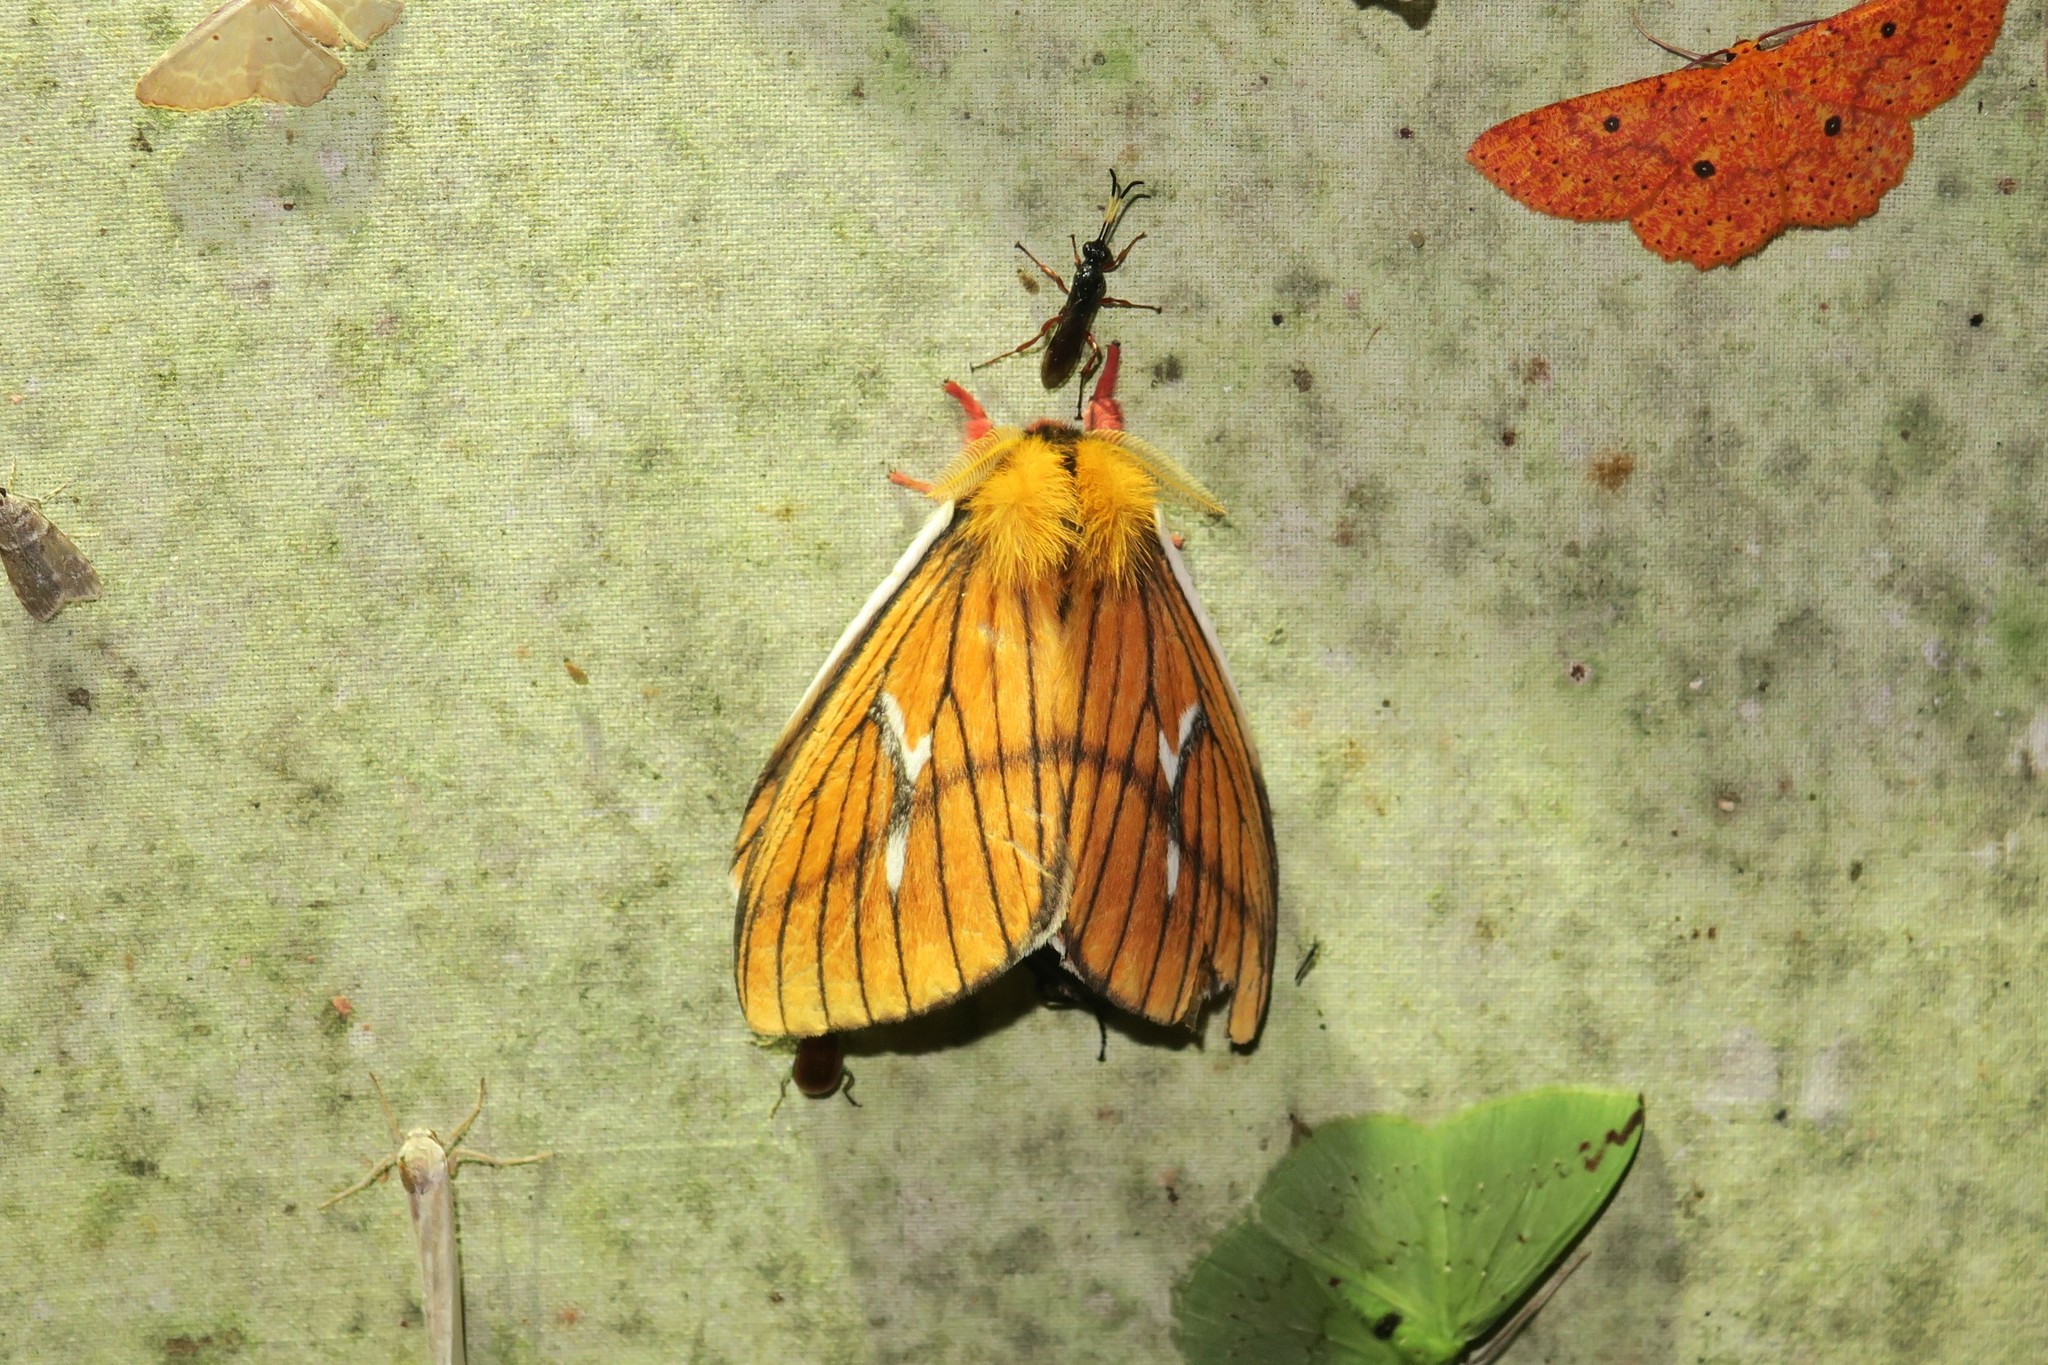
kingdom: Animalia
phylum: Arthropoda
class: Insecta
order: Lepidoptera
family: Saturniidae
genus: Cerodirphia
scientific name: Cerodirphia nadiana
